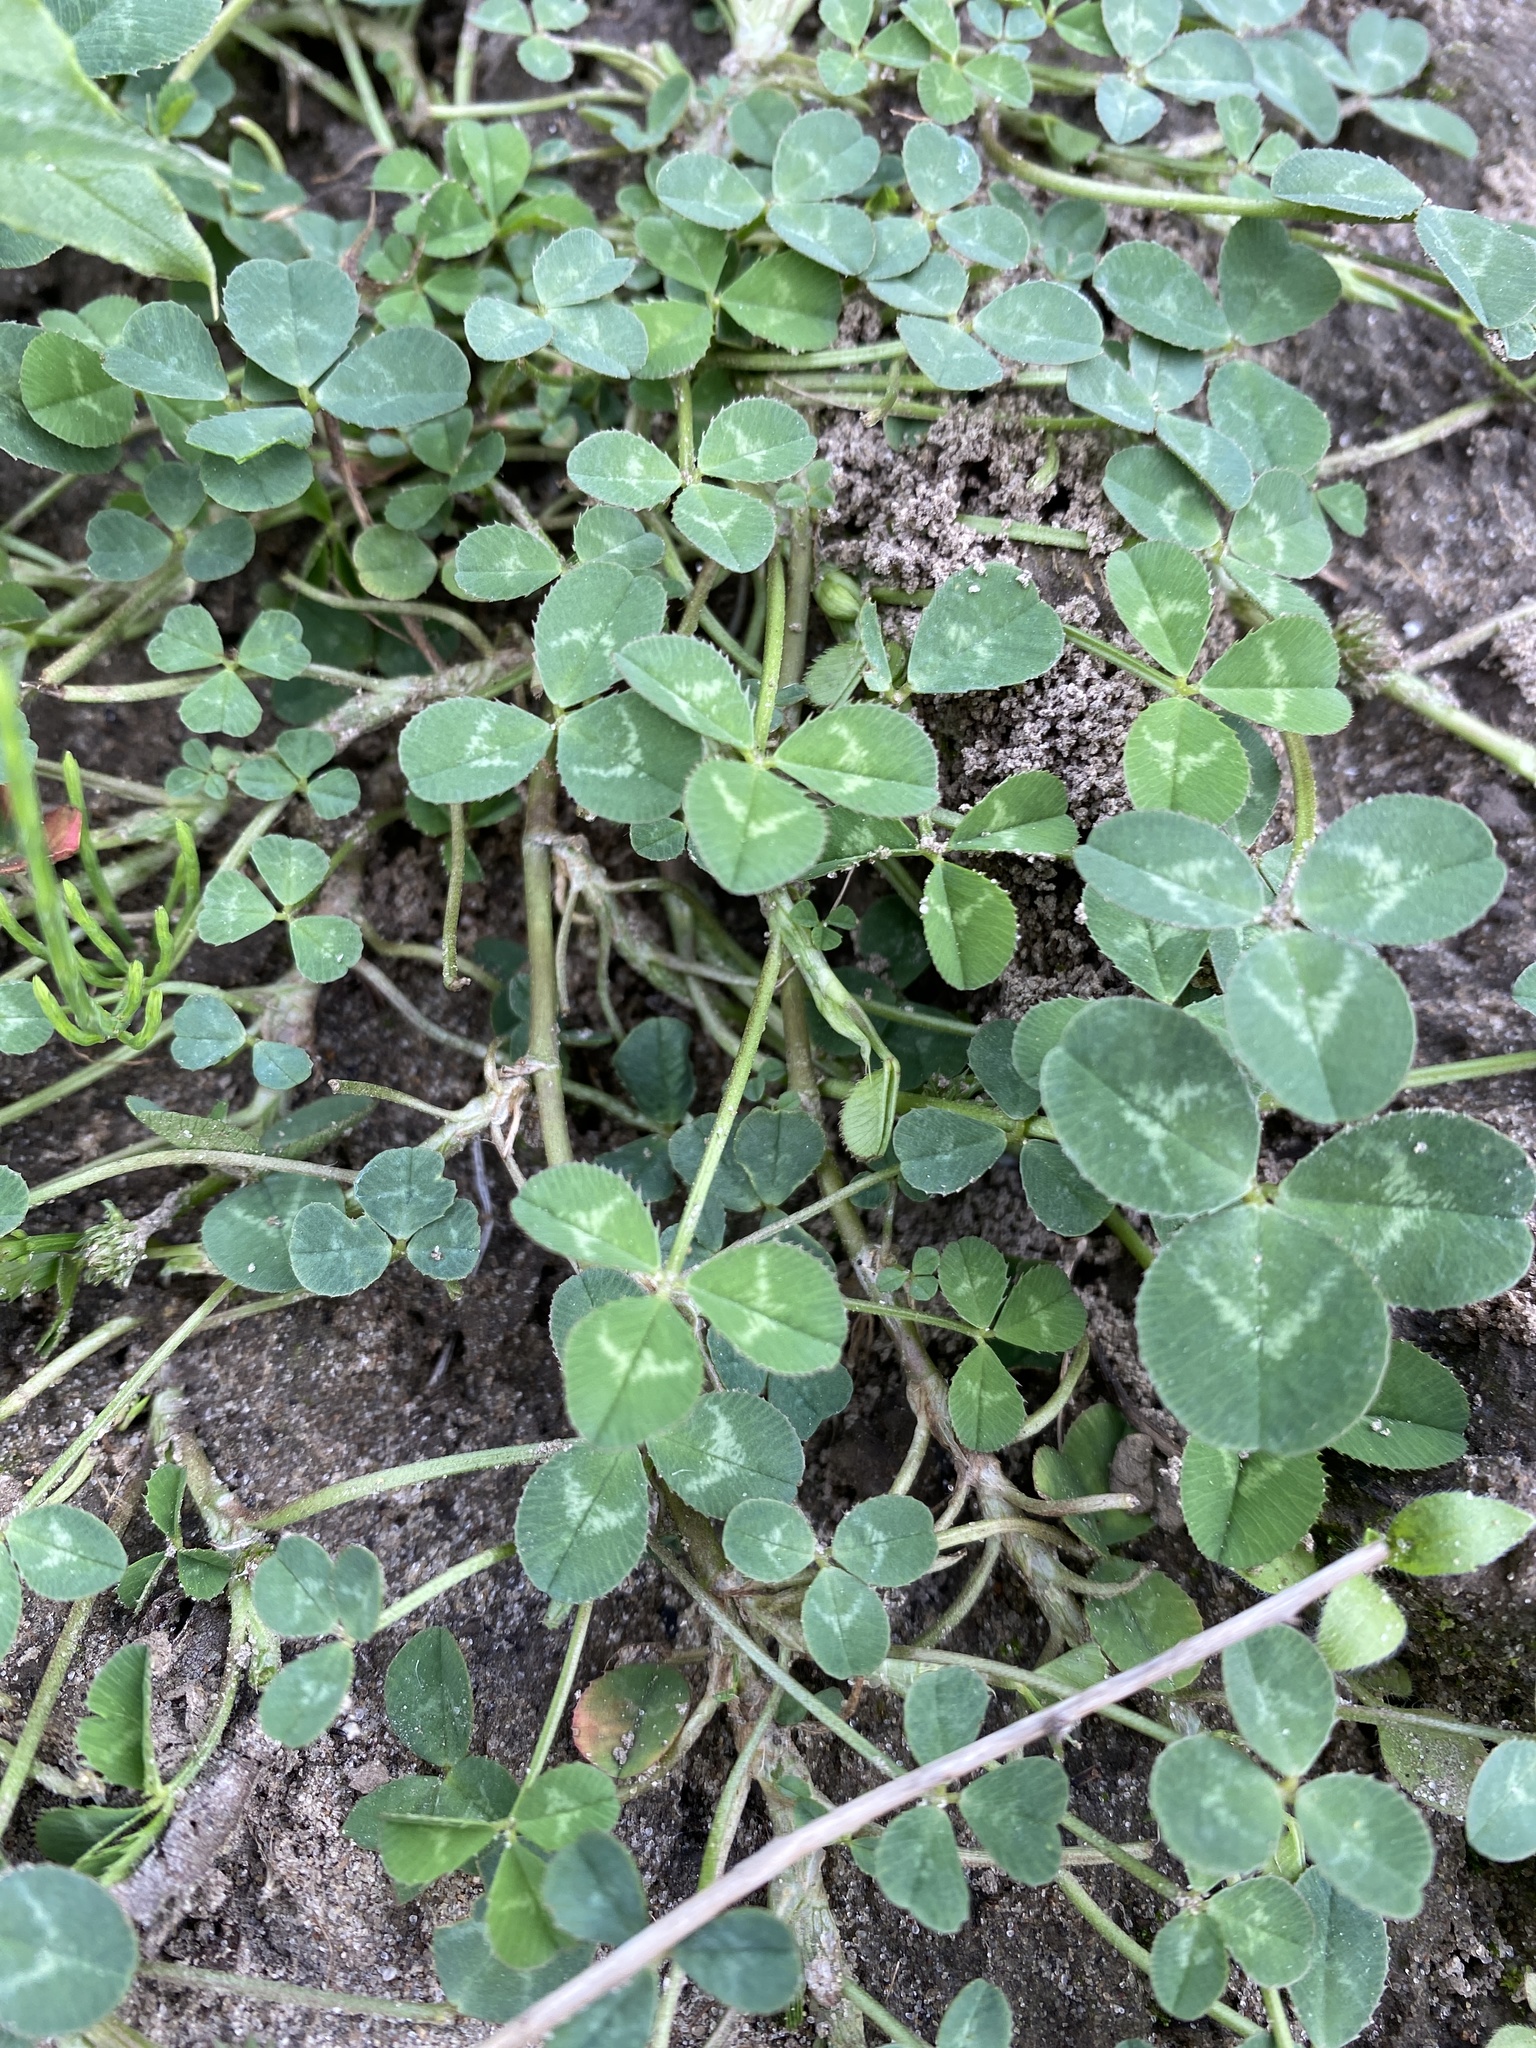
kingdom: Plantae
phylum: Tracheophyta
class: Magnoliopsida
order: Fabales
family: Fabaceae
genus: Trifolium
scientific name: Trifolium repens
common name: White clover
